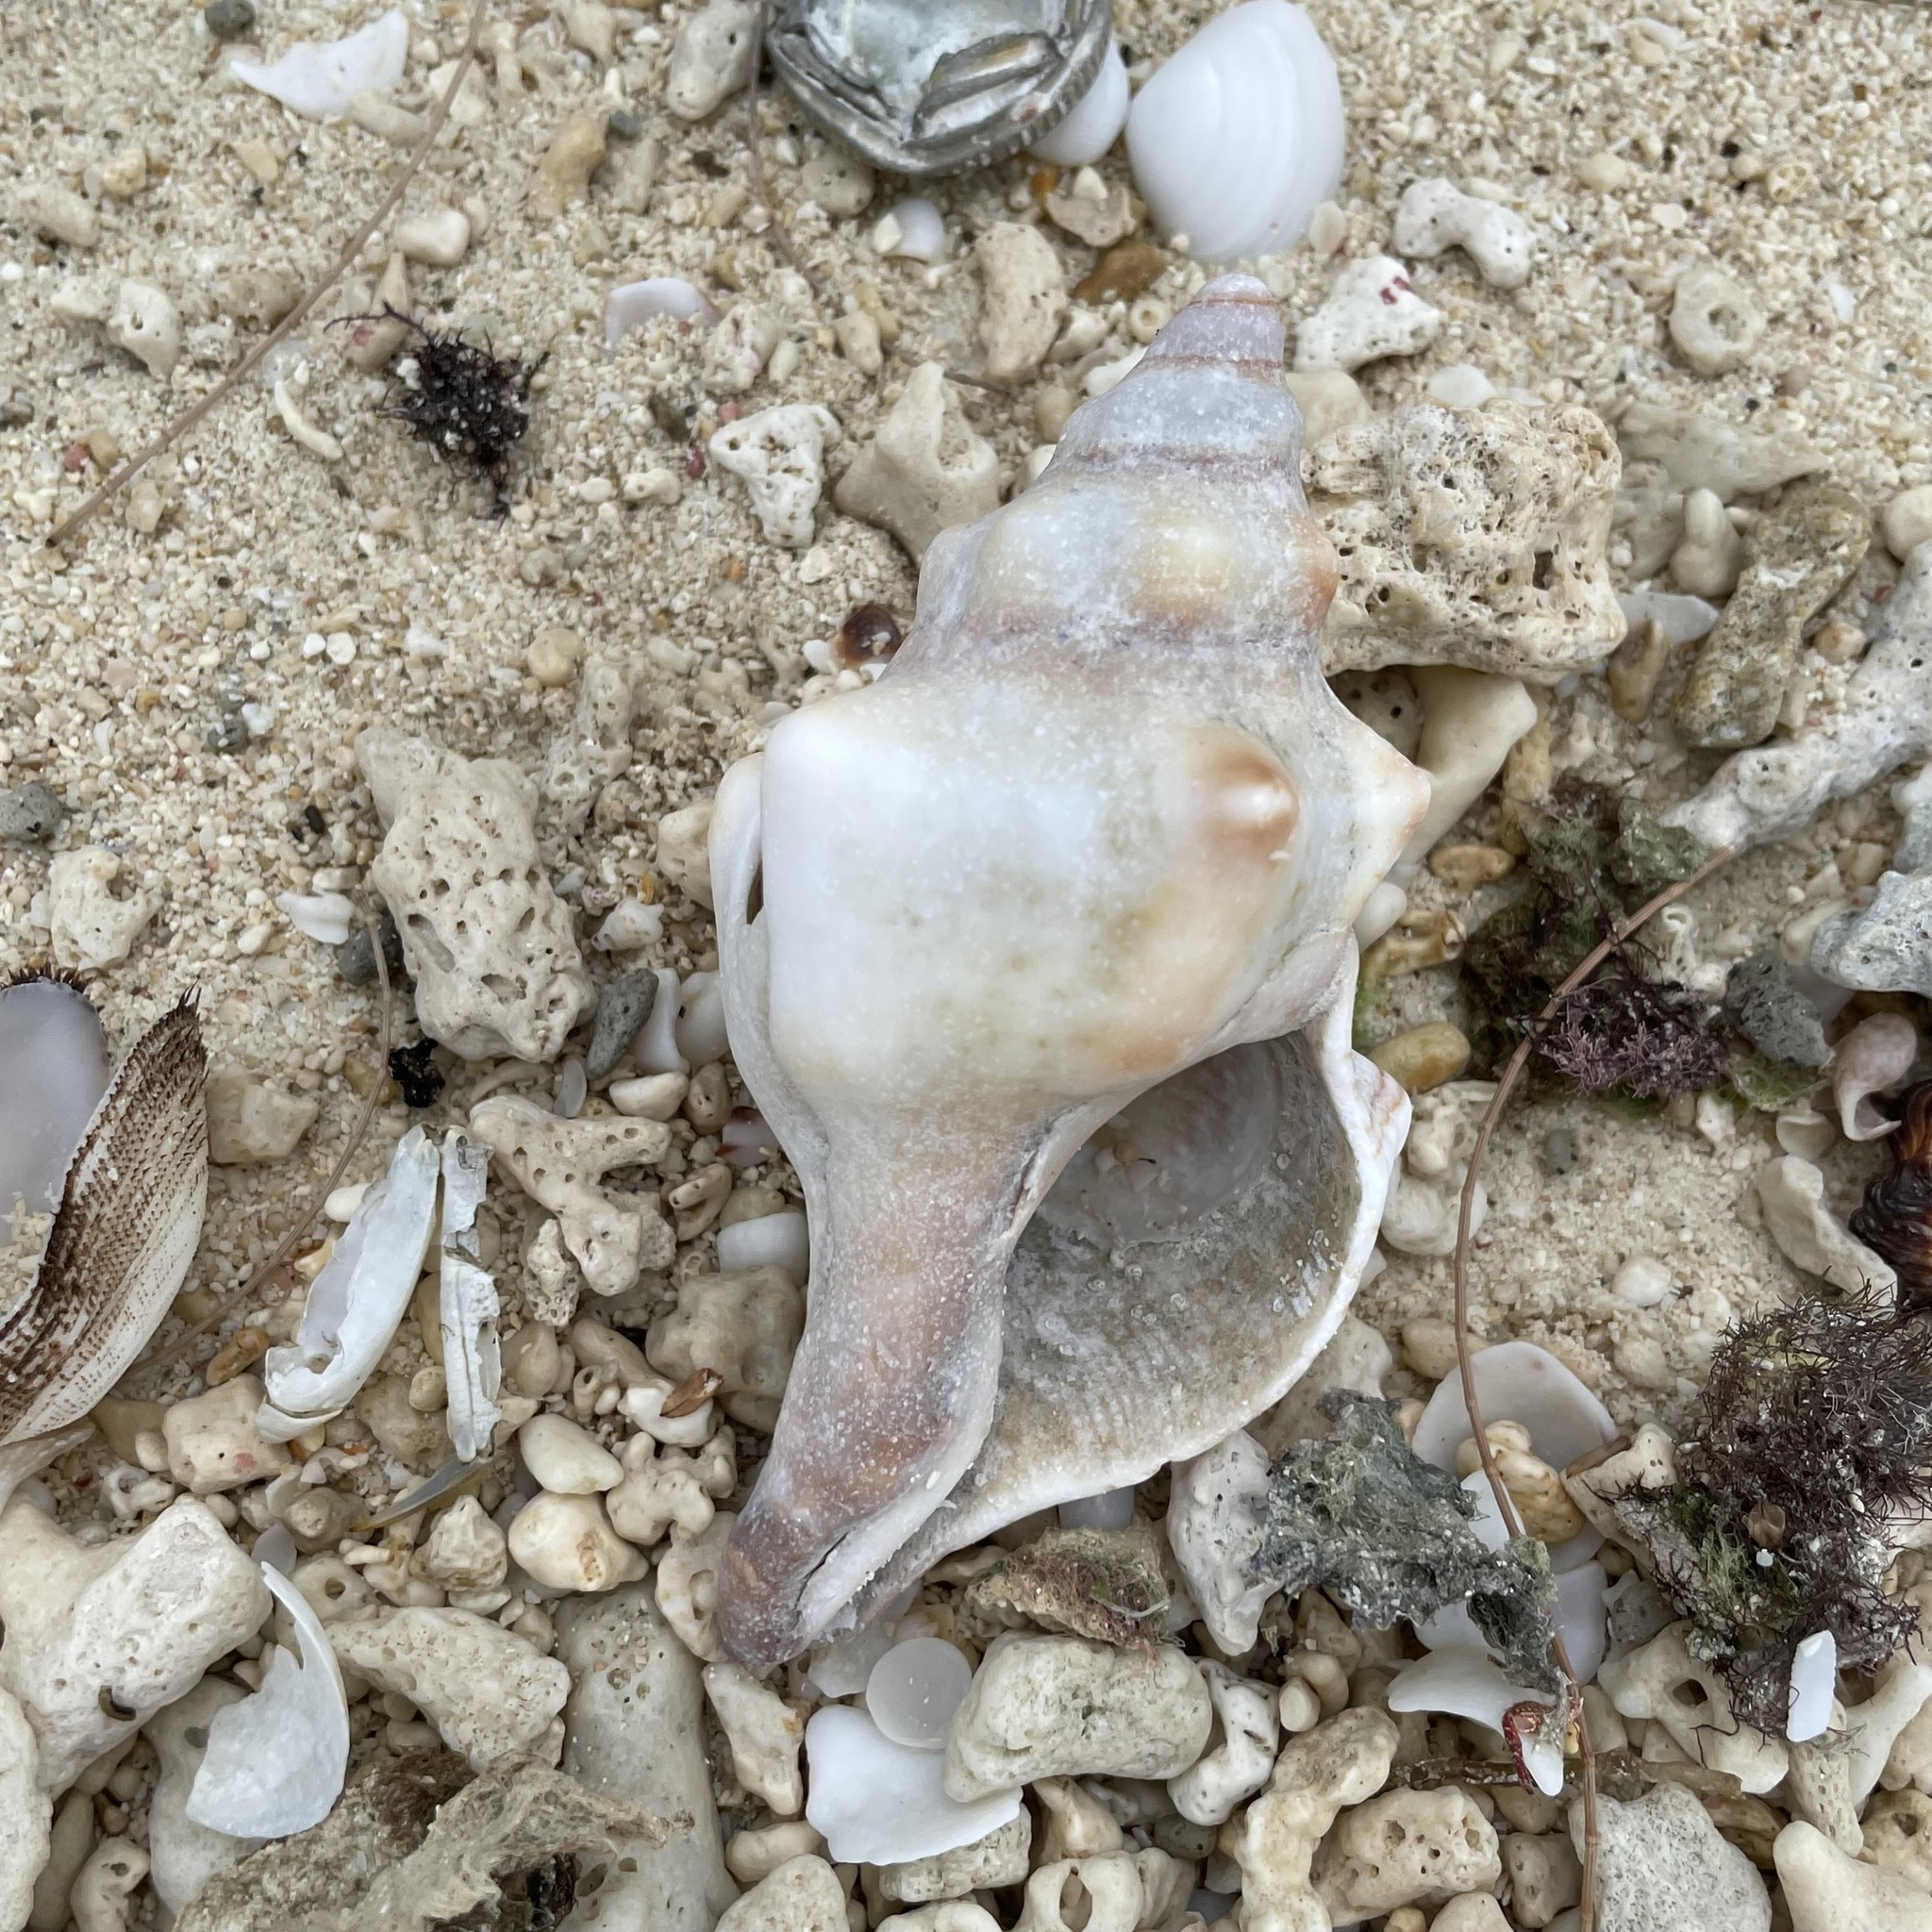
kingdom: Animalia
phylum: Mollusca
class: Gastropoda
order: Neogastropoda
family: Fasciolariidae
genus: Pleuroploca
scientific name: Pleuroploca trapezium
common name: Trapeze horseconch
